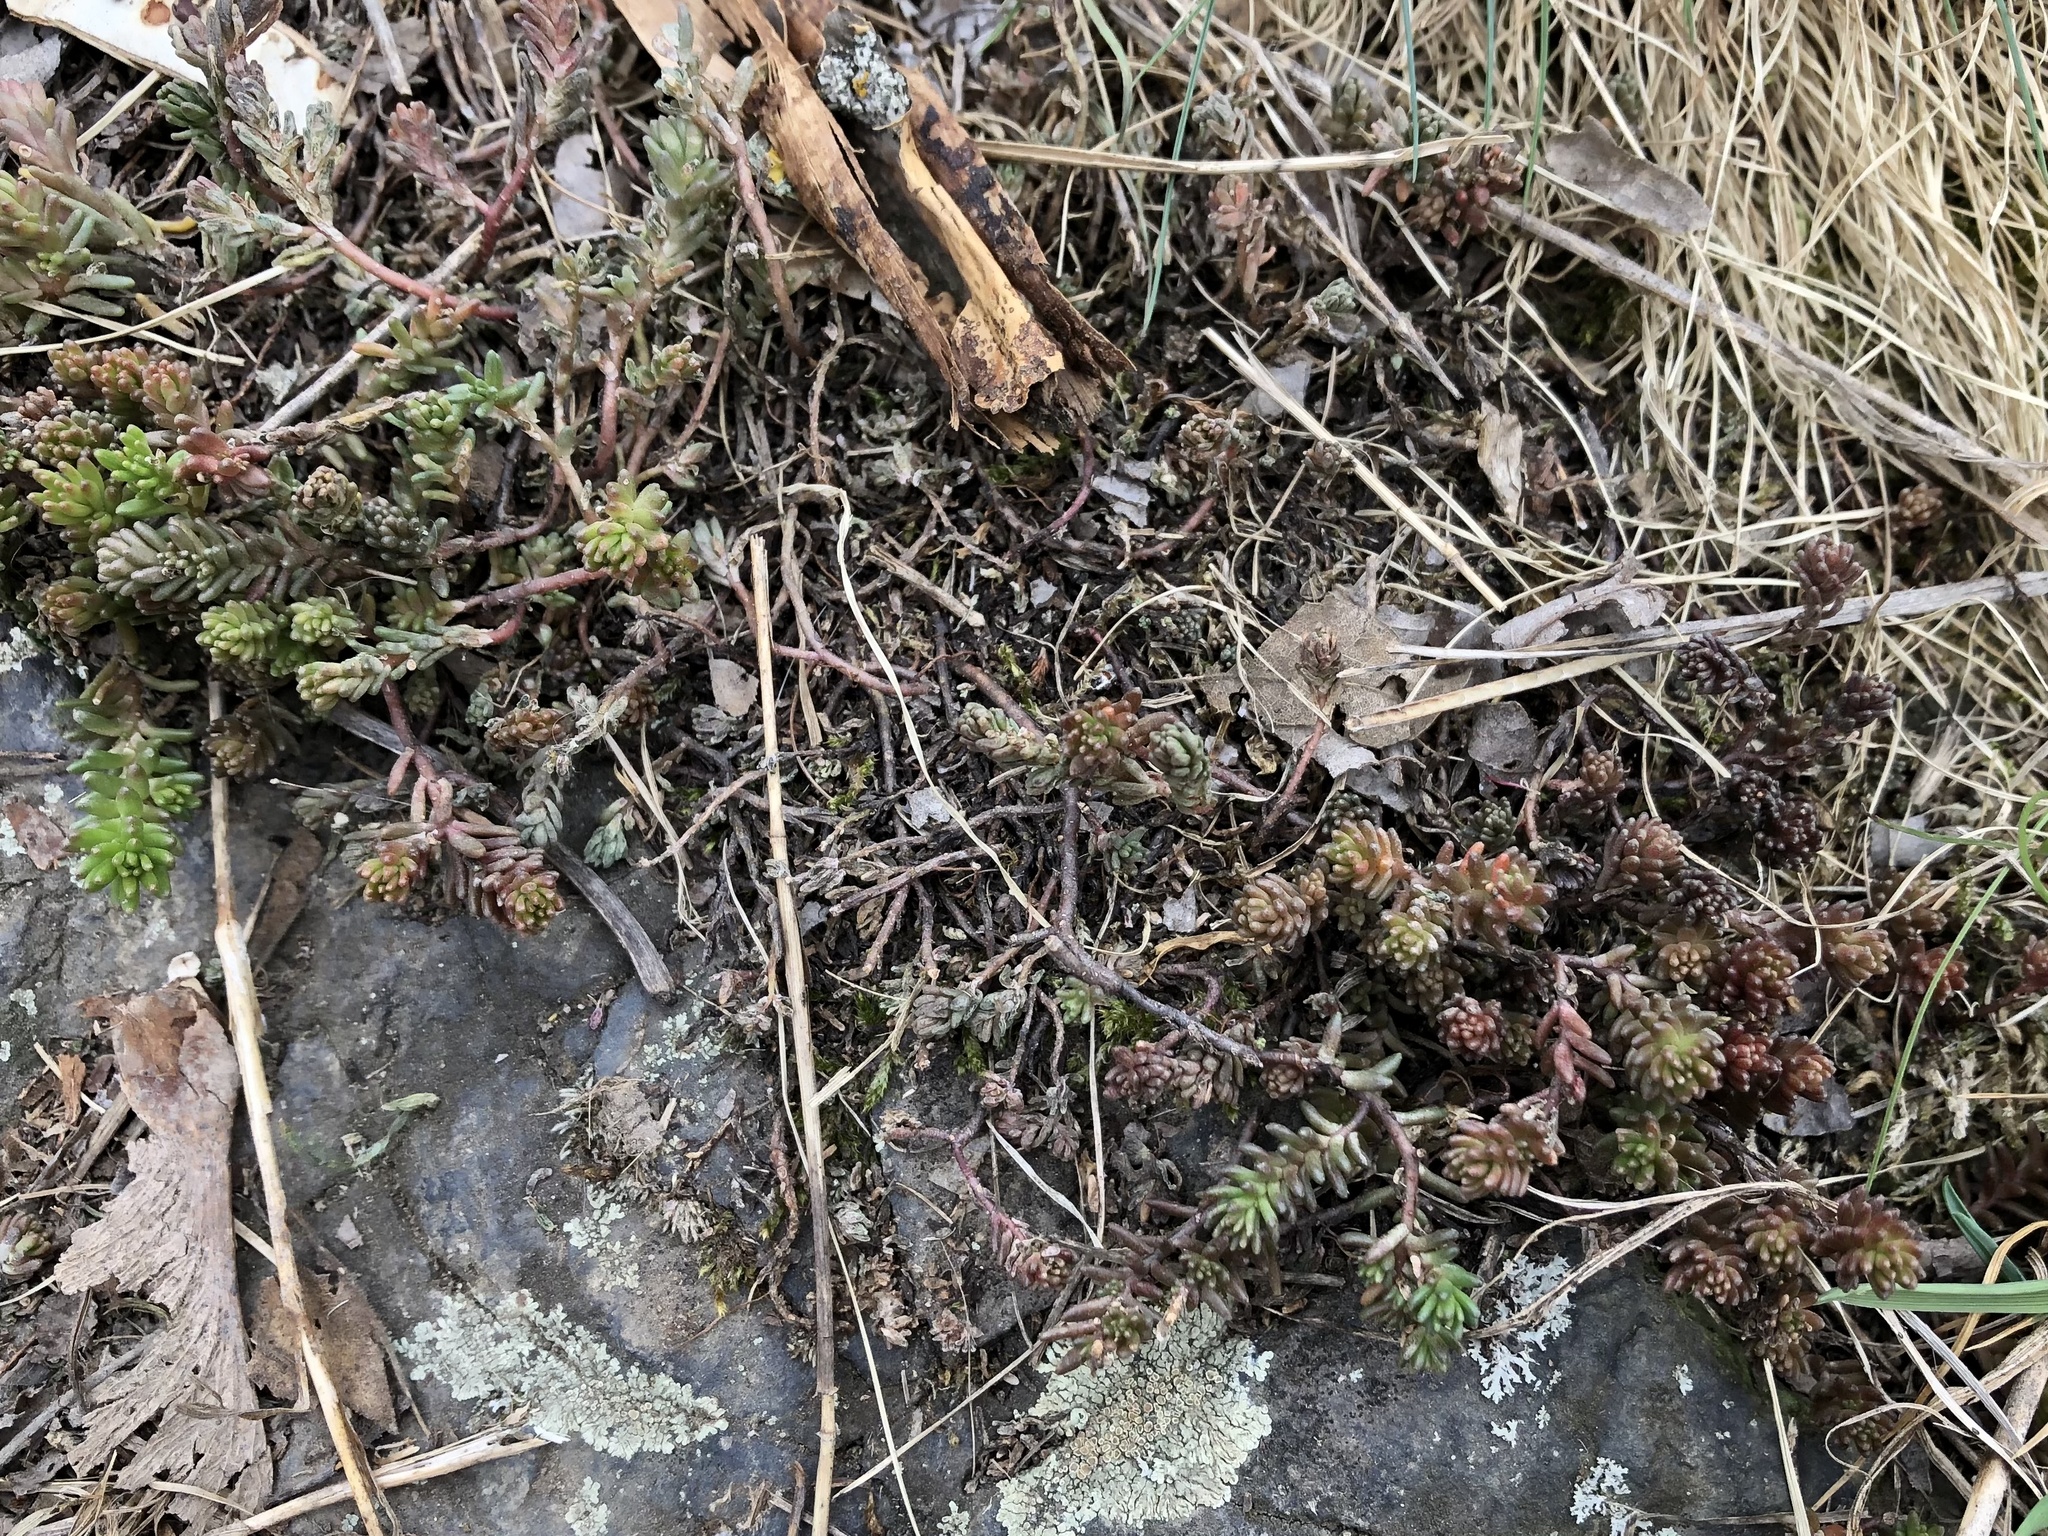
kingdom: Plantae
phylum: Tracheophyta
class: Magnoliopsida
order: Saxifragales
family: Crassulaceae
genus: Sedum
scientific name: Sedum sexangulare
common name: Tasteless stonecrop
